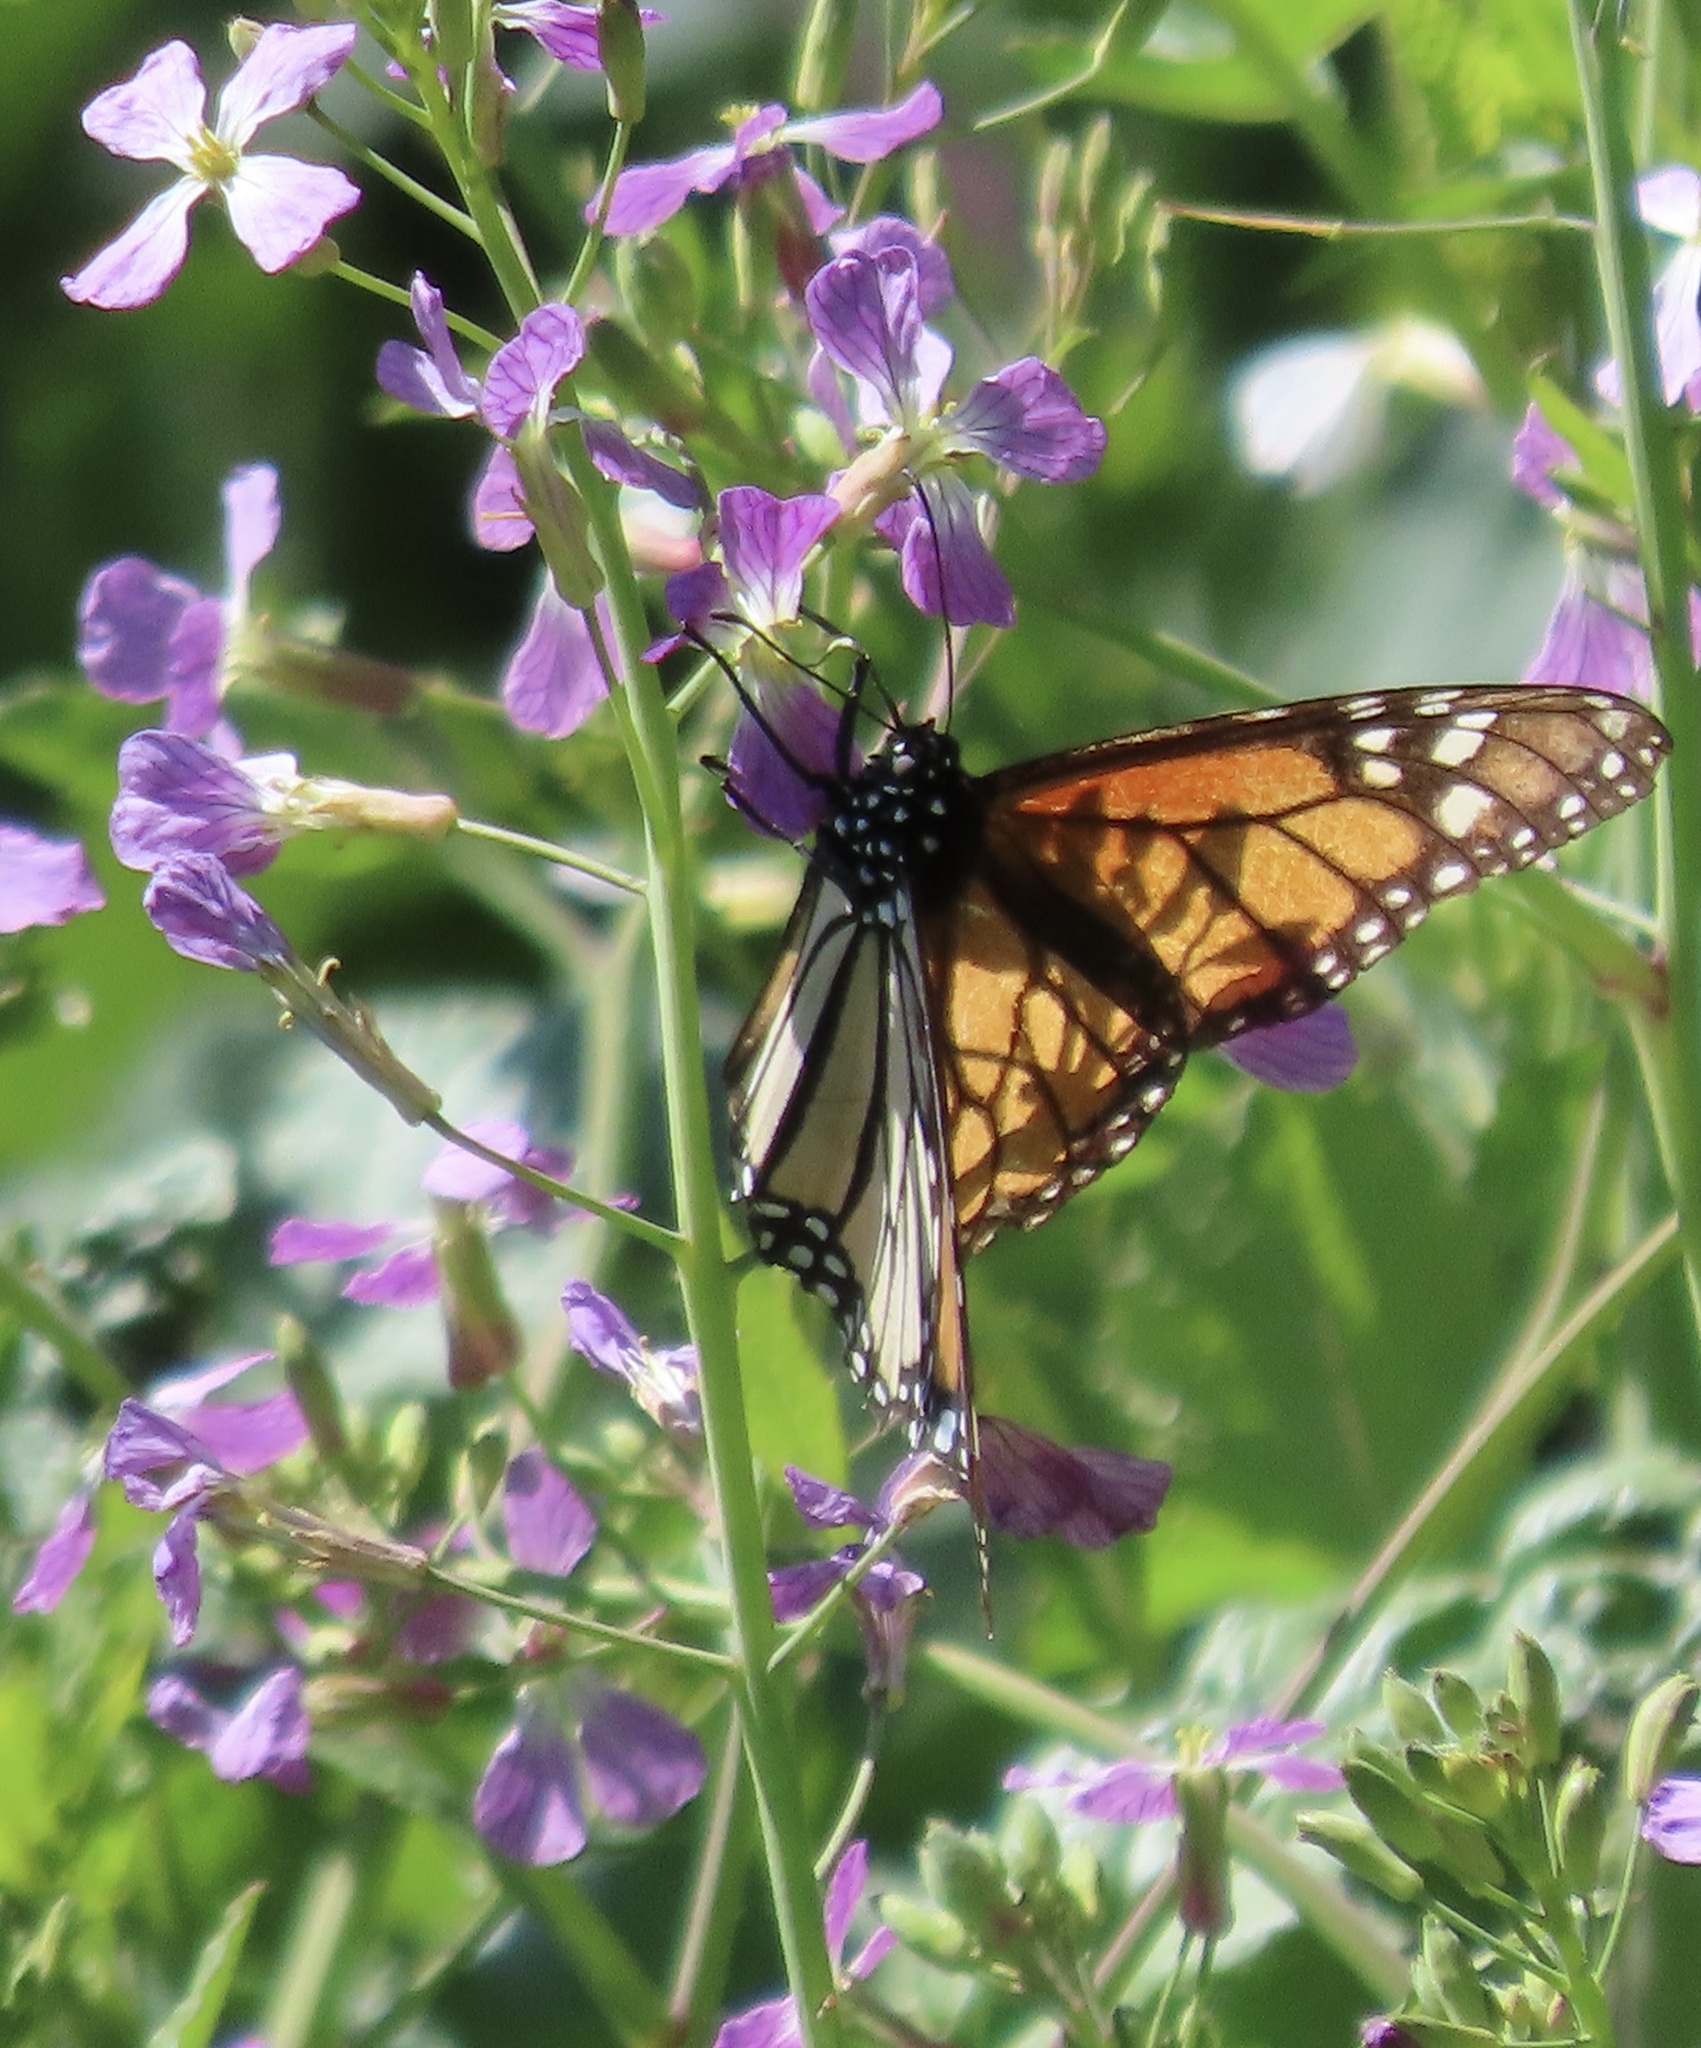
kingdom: Animalia
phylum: Arthropoda
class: Insecta
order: Lepidoptera
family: Nymphalidae
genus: Danaus
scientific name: Danaus plexippus
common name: Monarch
